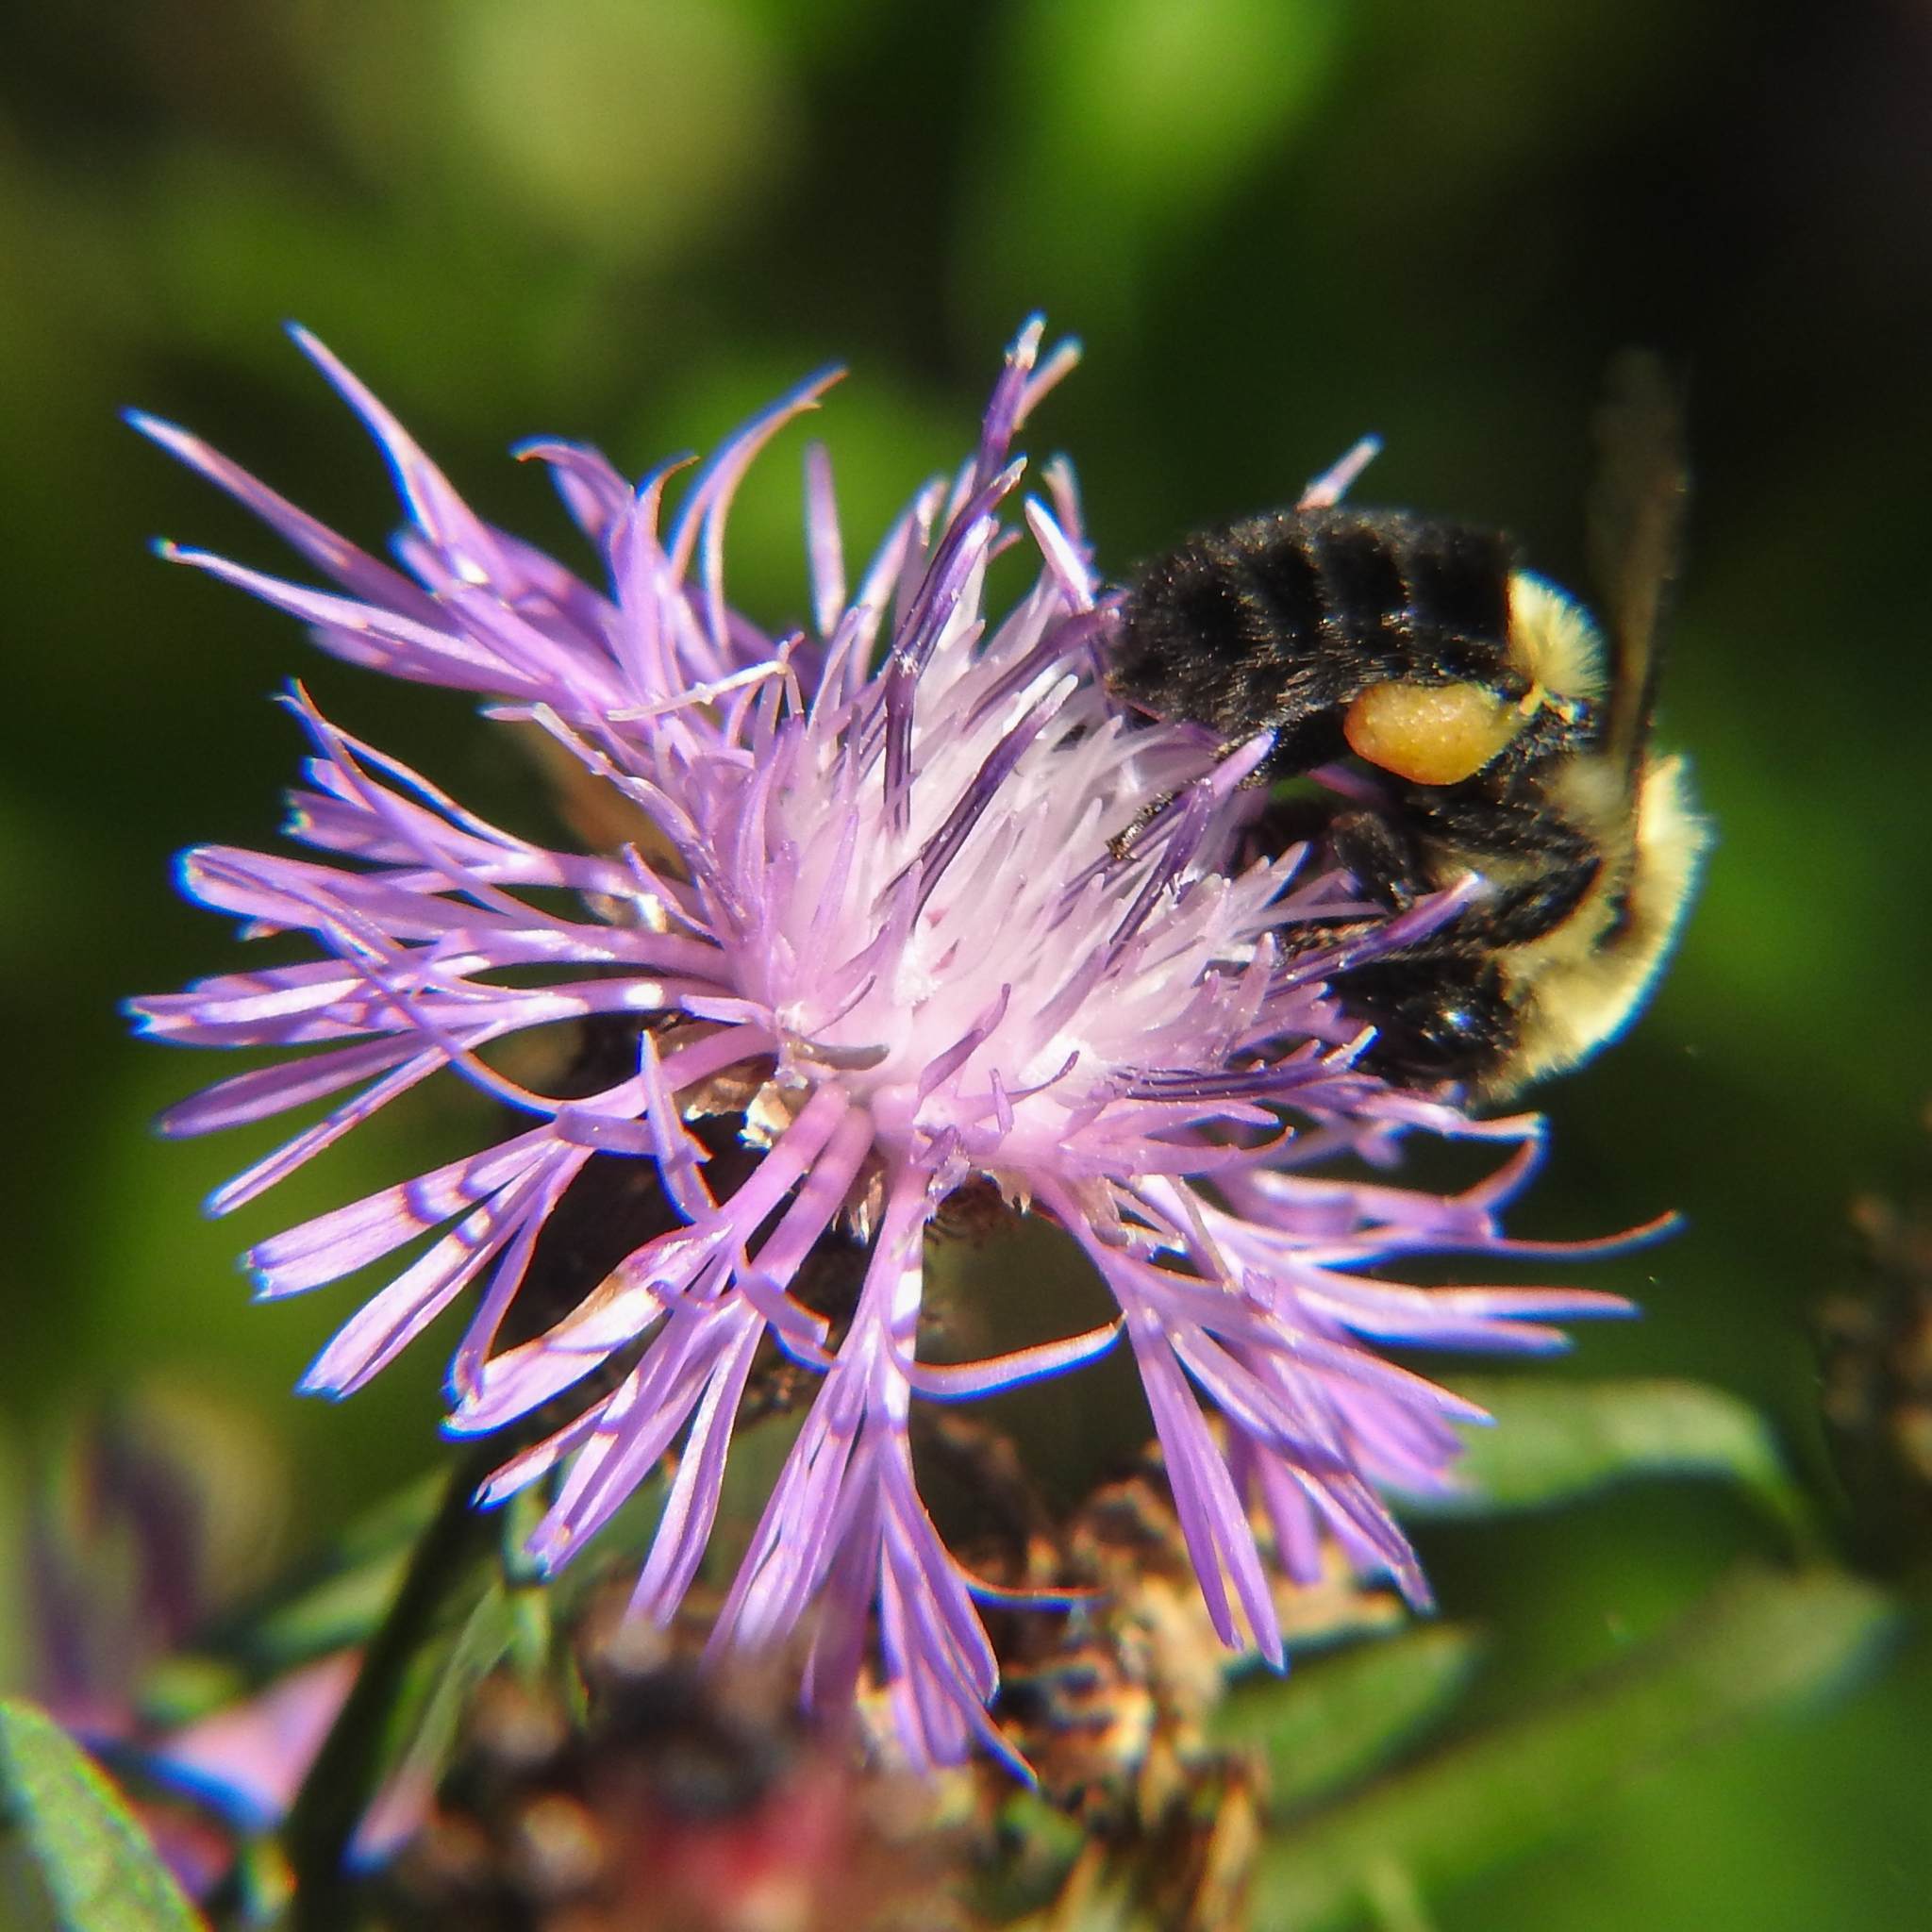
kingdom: Animalia
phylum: Arthropoda
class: Insecta
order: Hymenoptera
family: Apidae
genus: Bombus
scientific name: Bombus impatiens
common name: Common eastern bumble bee
